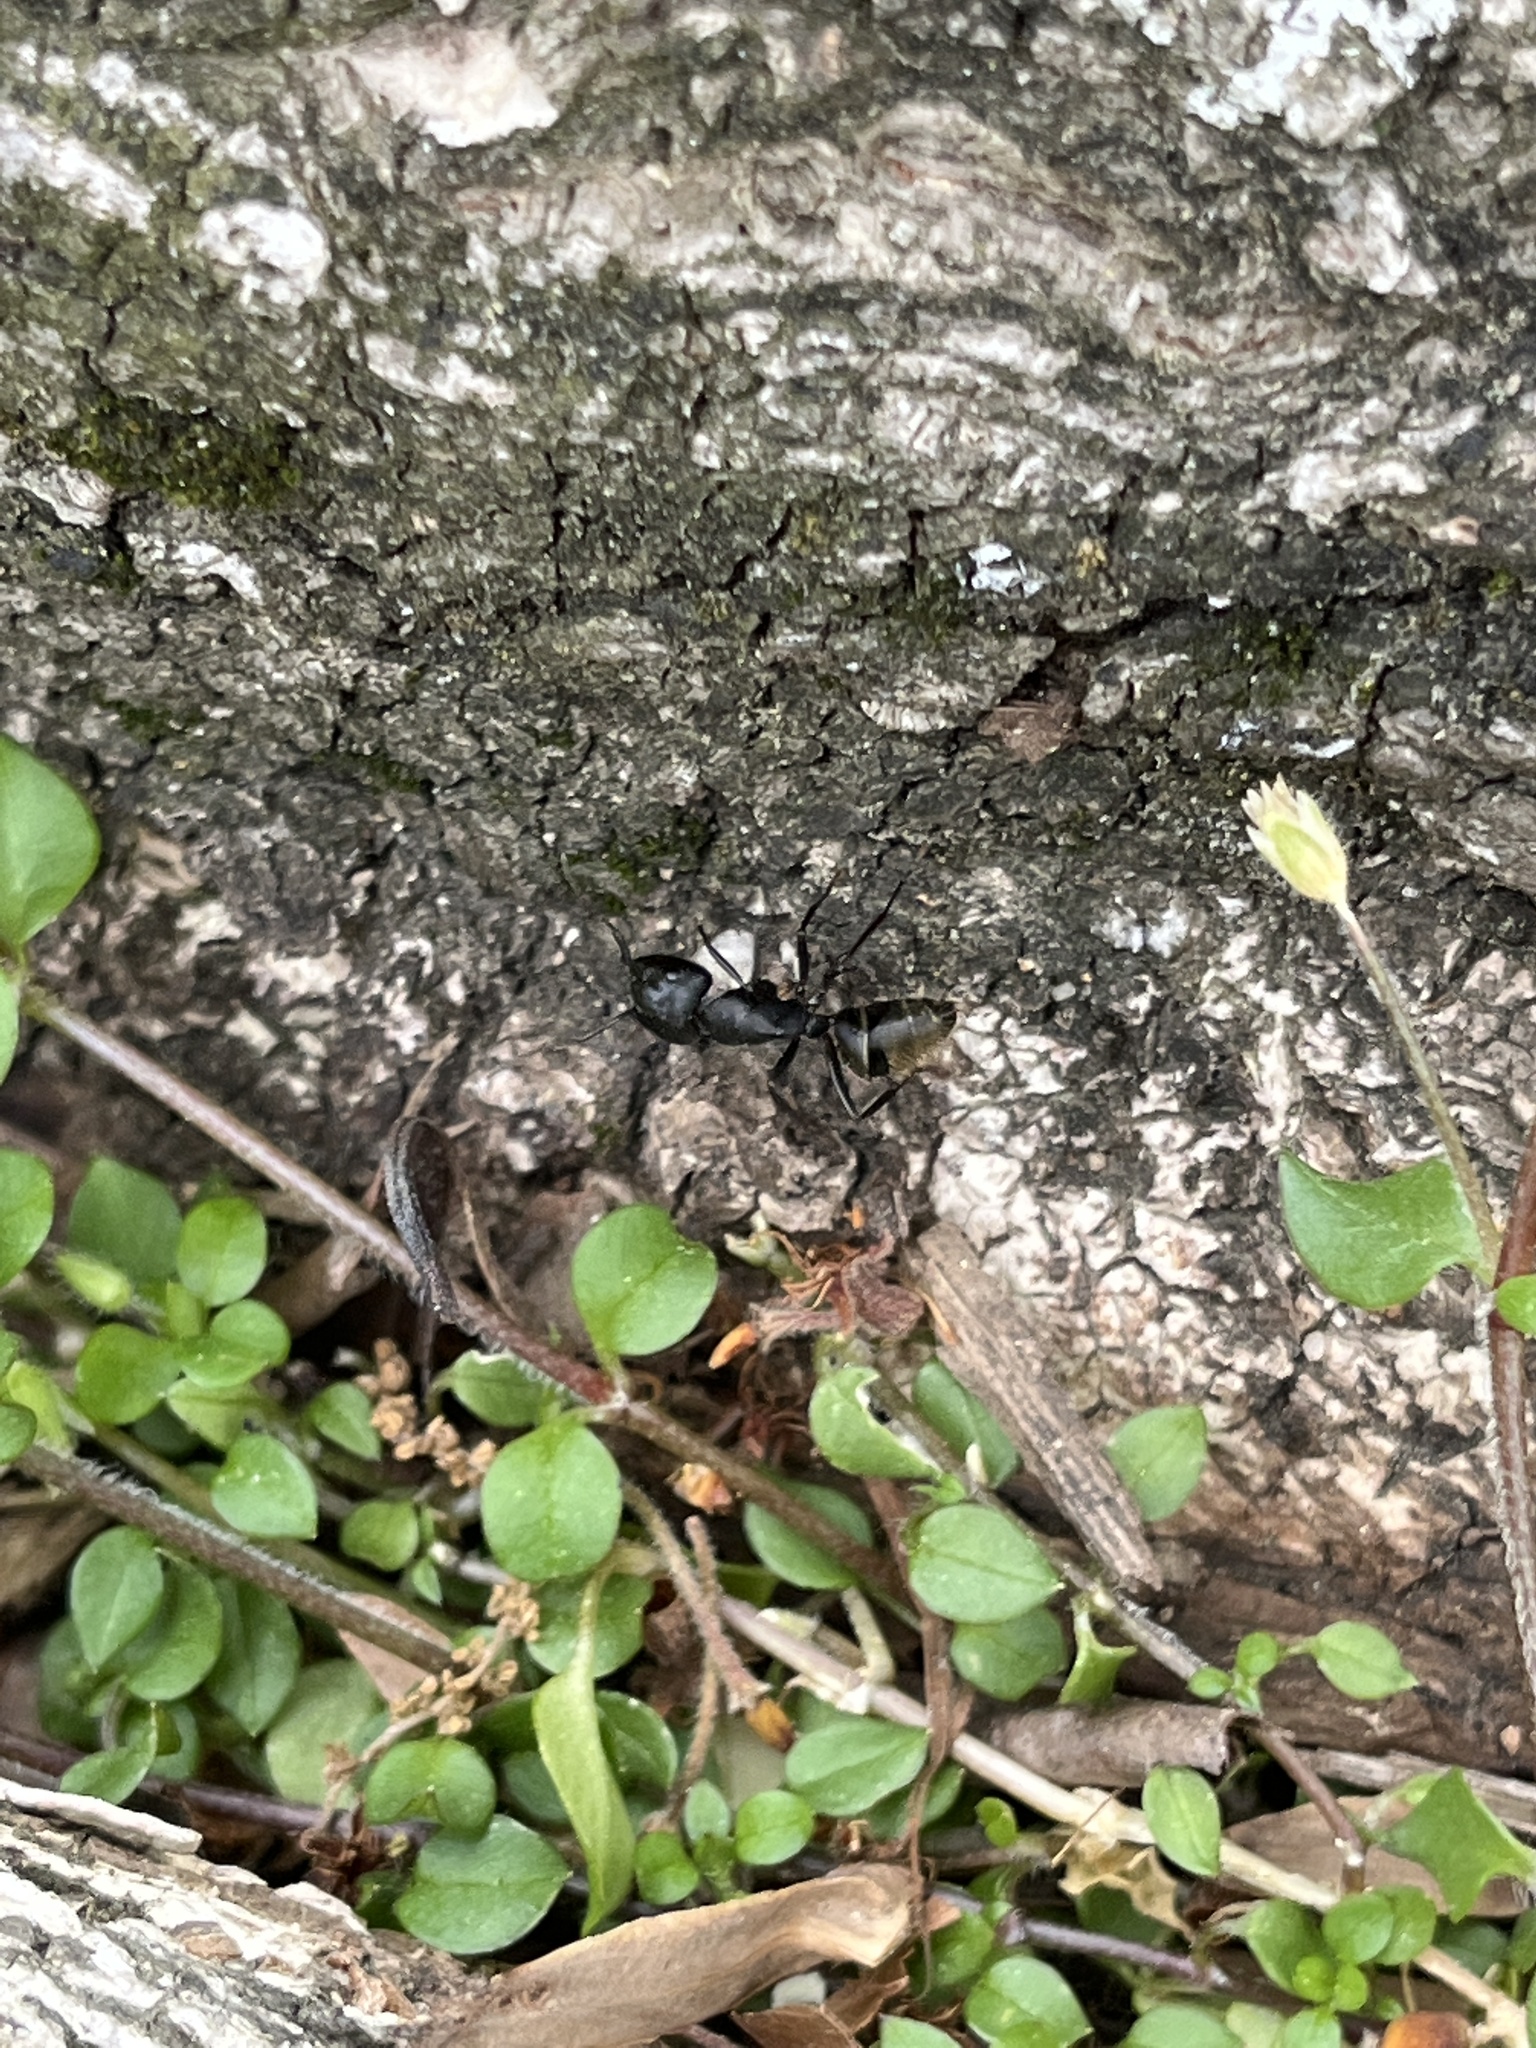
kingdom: Animalia
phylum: Arthropoda
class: Insecta
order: Hymenoptera
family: Formicidae
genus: Camponotus
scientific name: Camponotus pennsylvanicus
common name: Black carpenter ant
